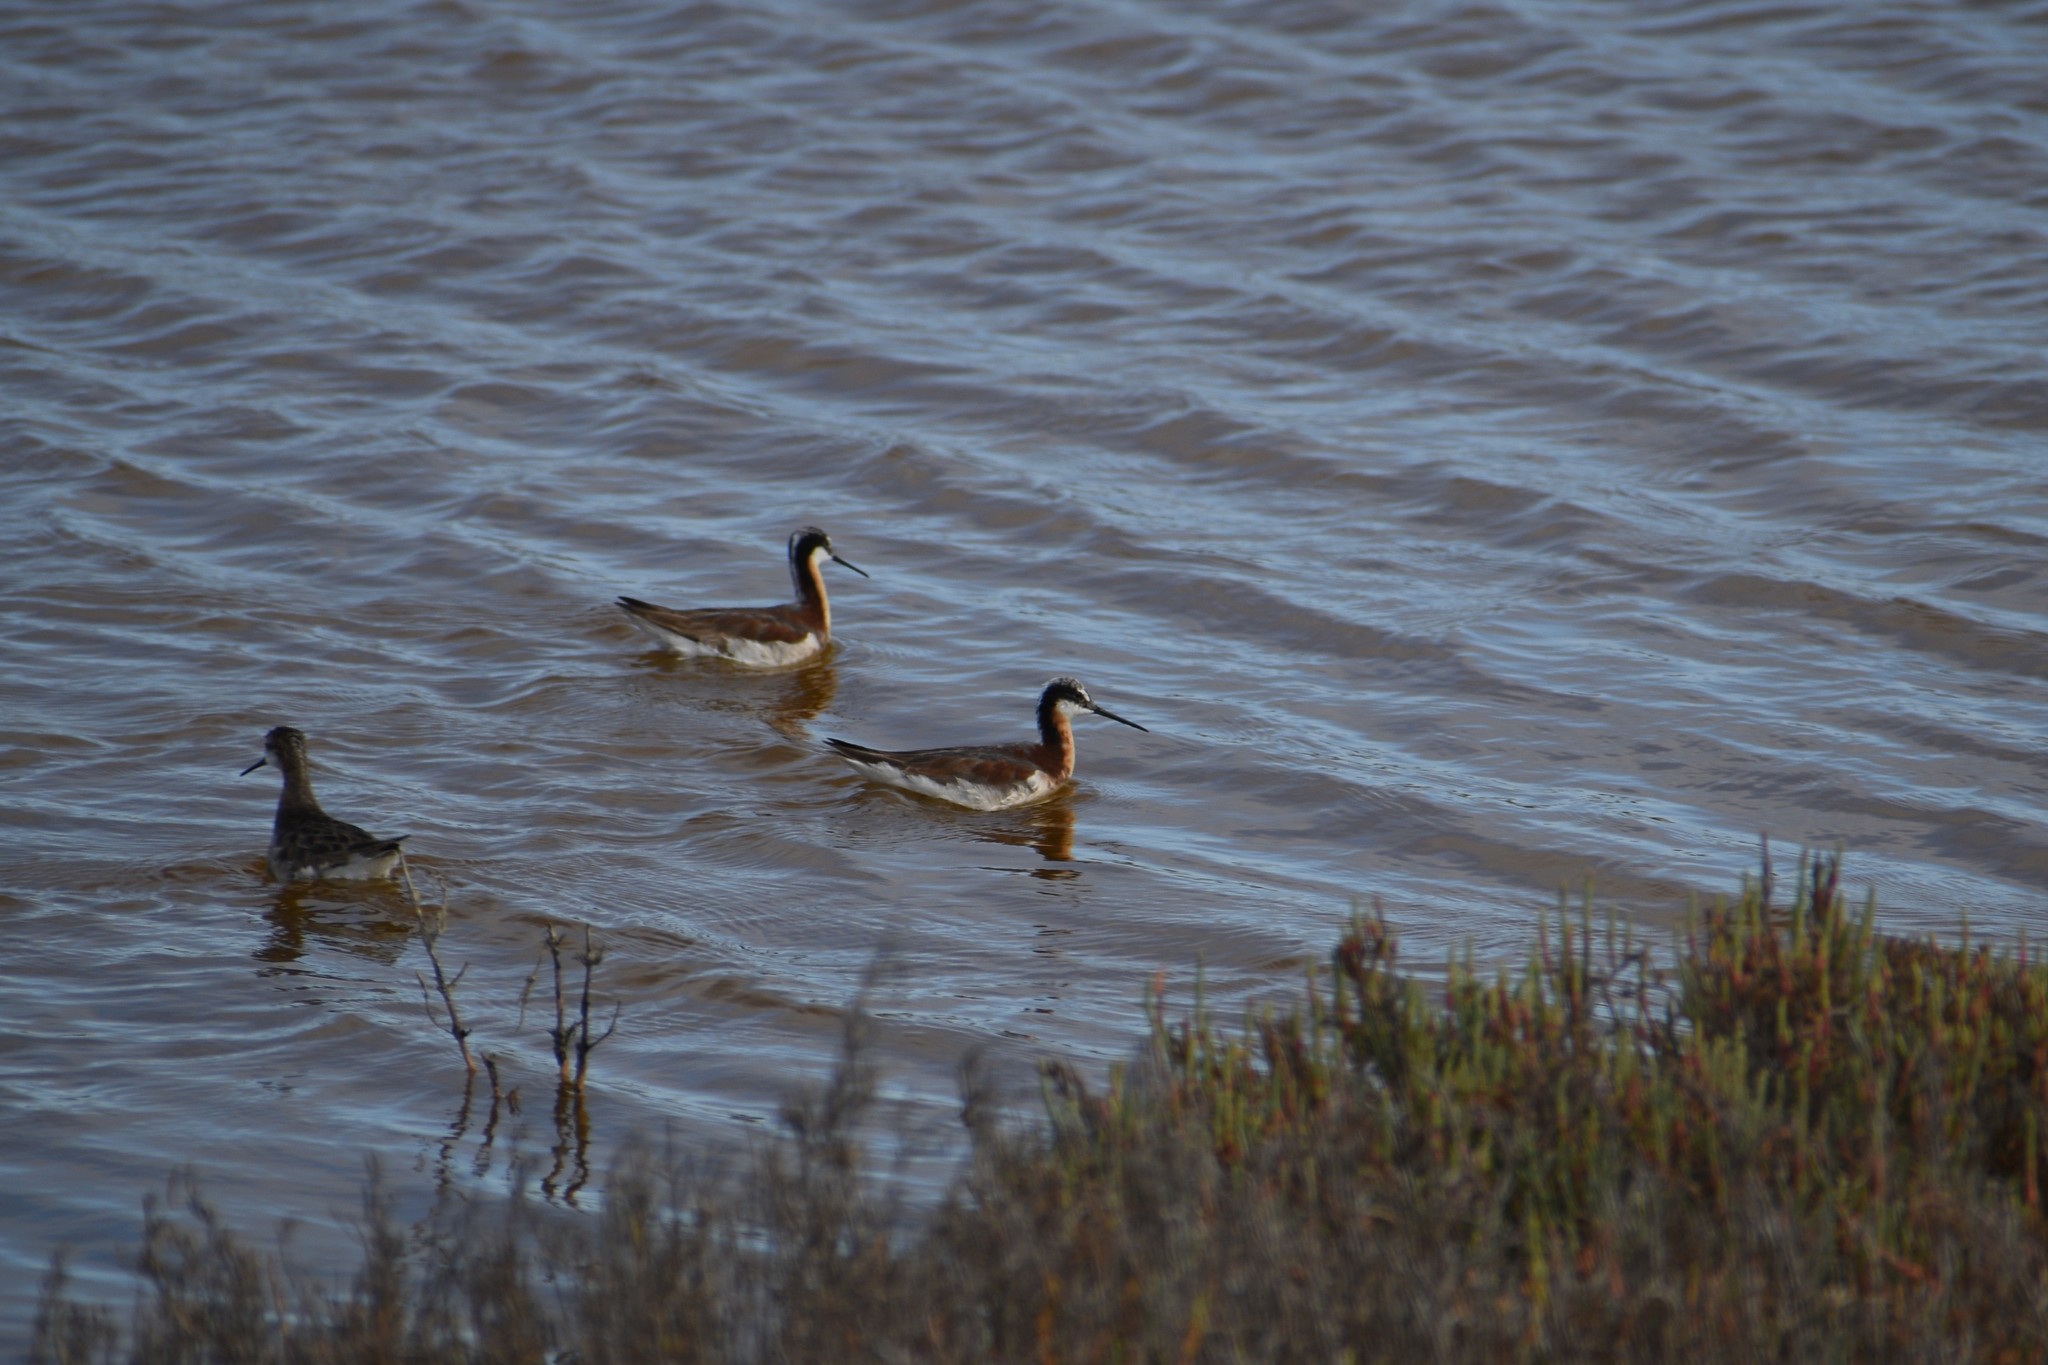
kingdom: Animalia
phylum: Chordata
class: Aves
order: Charadriiformes
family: Scolopacidae
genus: Phalaropus
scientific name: Phalaropus tricolor
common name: Wilson's phalarope
